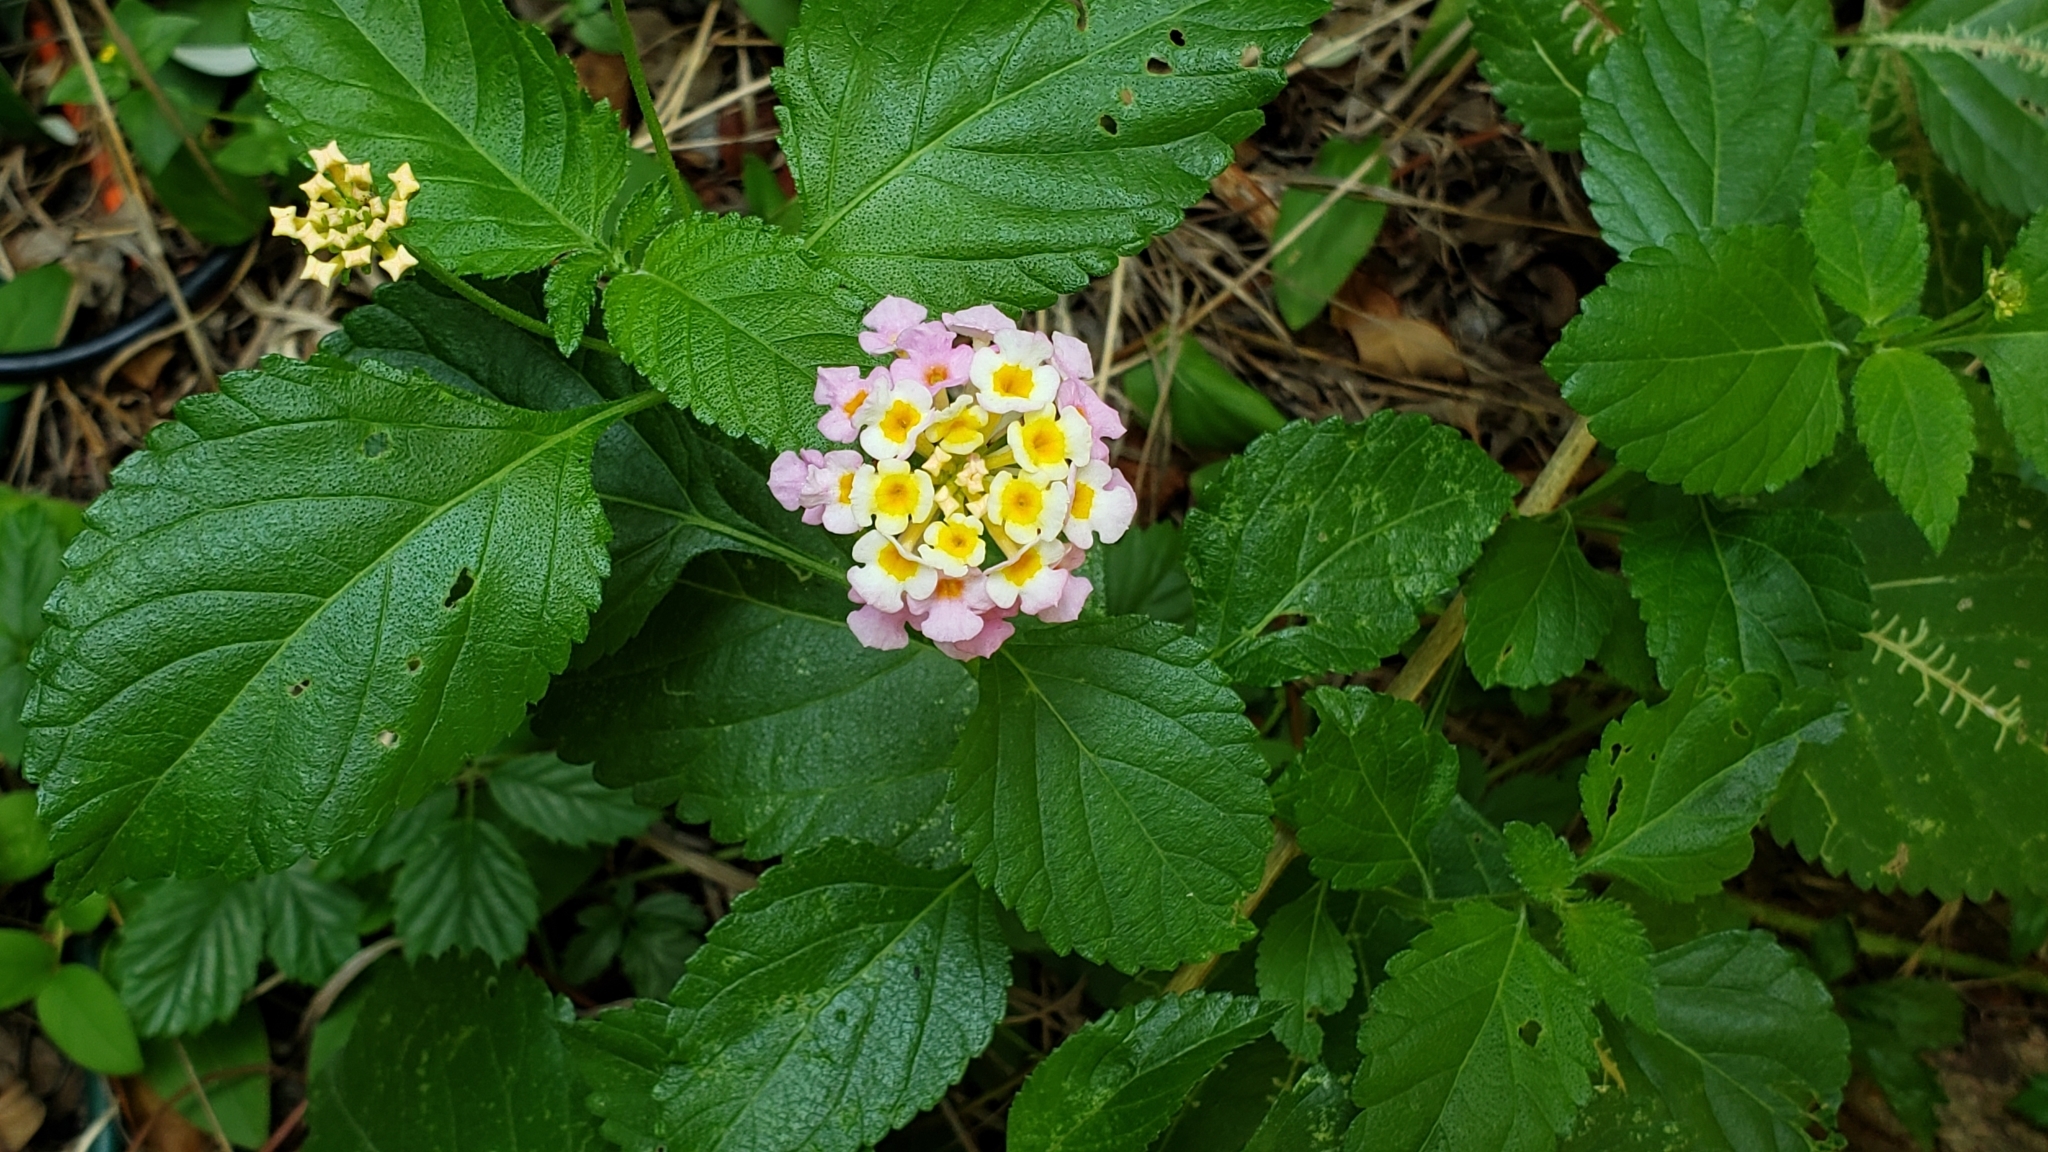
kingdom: Plantae
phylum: Tracheophyta
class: Magnoliopsida
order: Lamiales
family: Verbenaceae
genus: Lantana
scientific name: Lantana strigocamara
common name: Lantana
